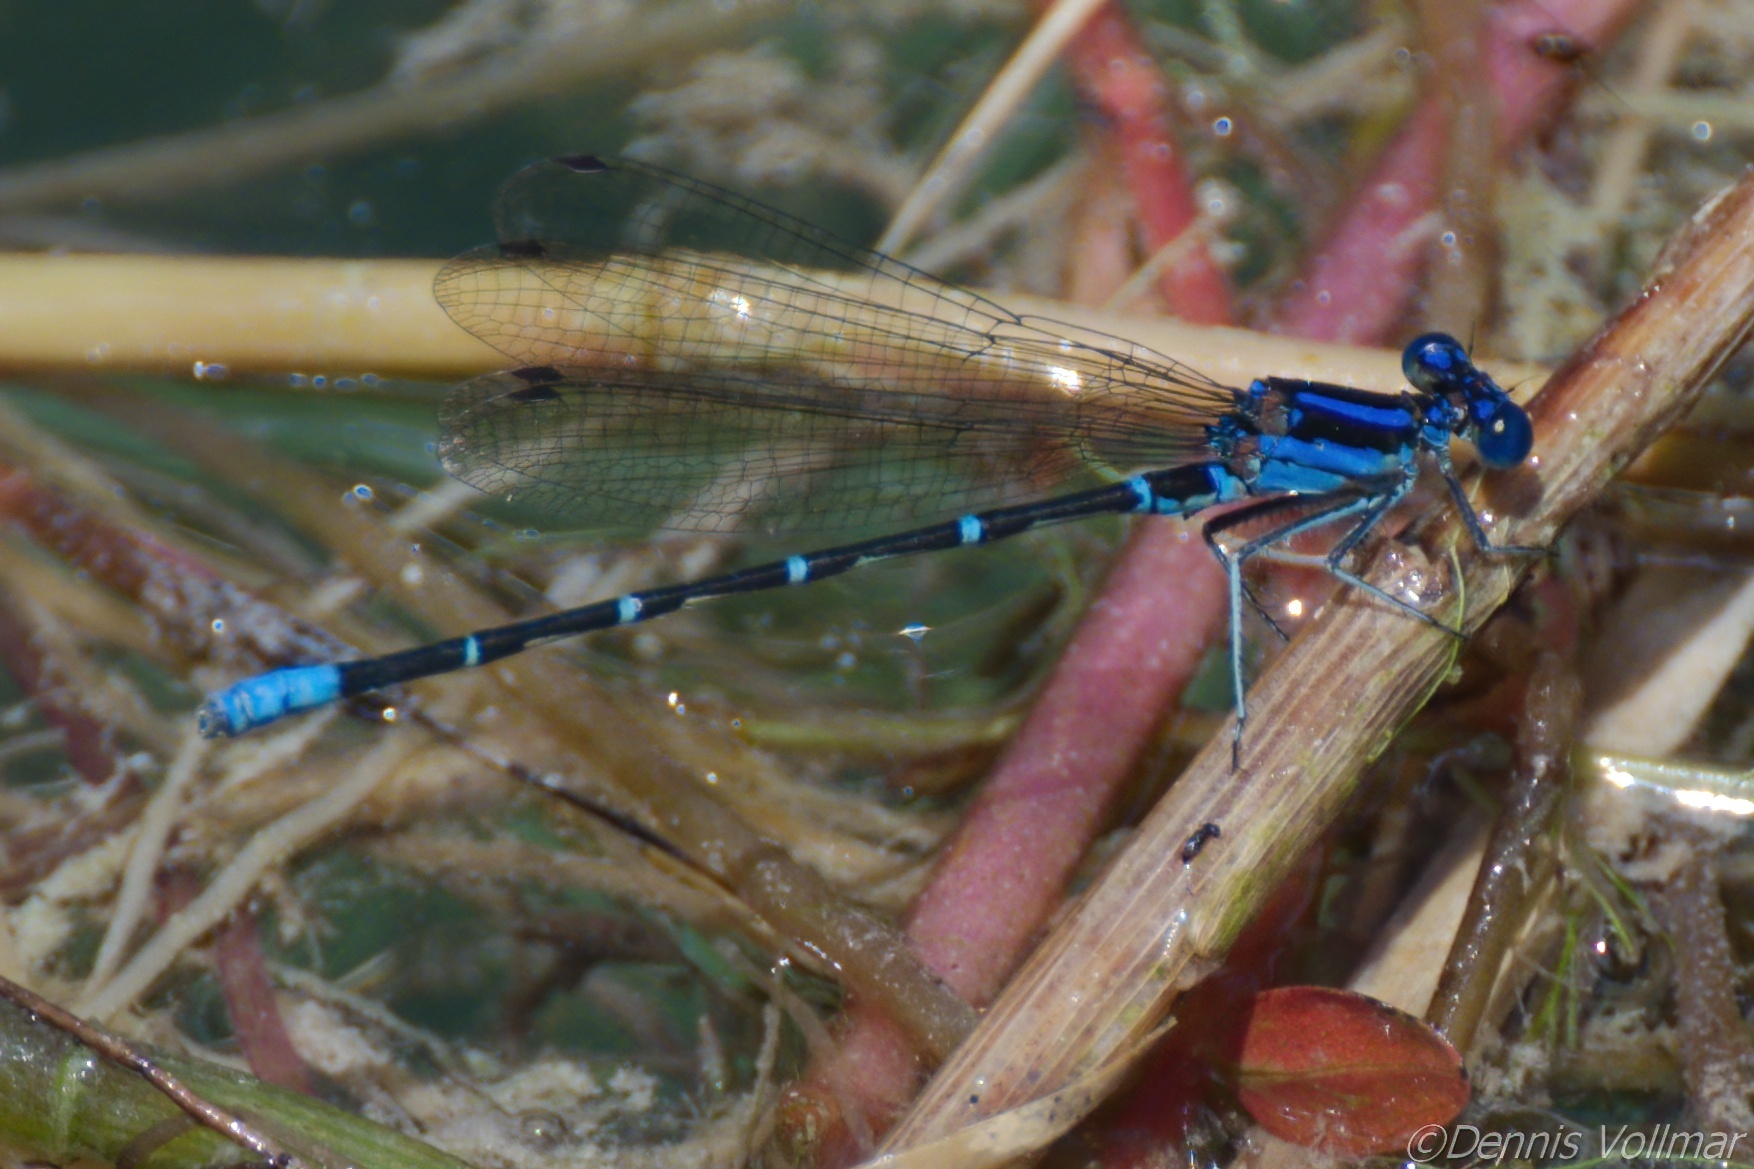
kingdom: Animalia
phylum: Arthropoda
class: Insecta
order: Odonata
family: Coenagrionidae
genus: Argia
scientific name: Argia sedula
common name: Blue-ringed dancer
